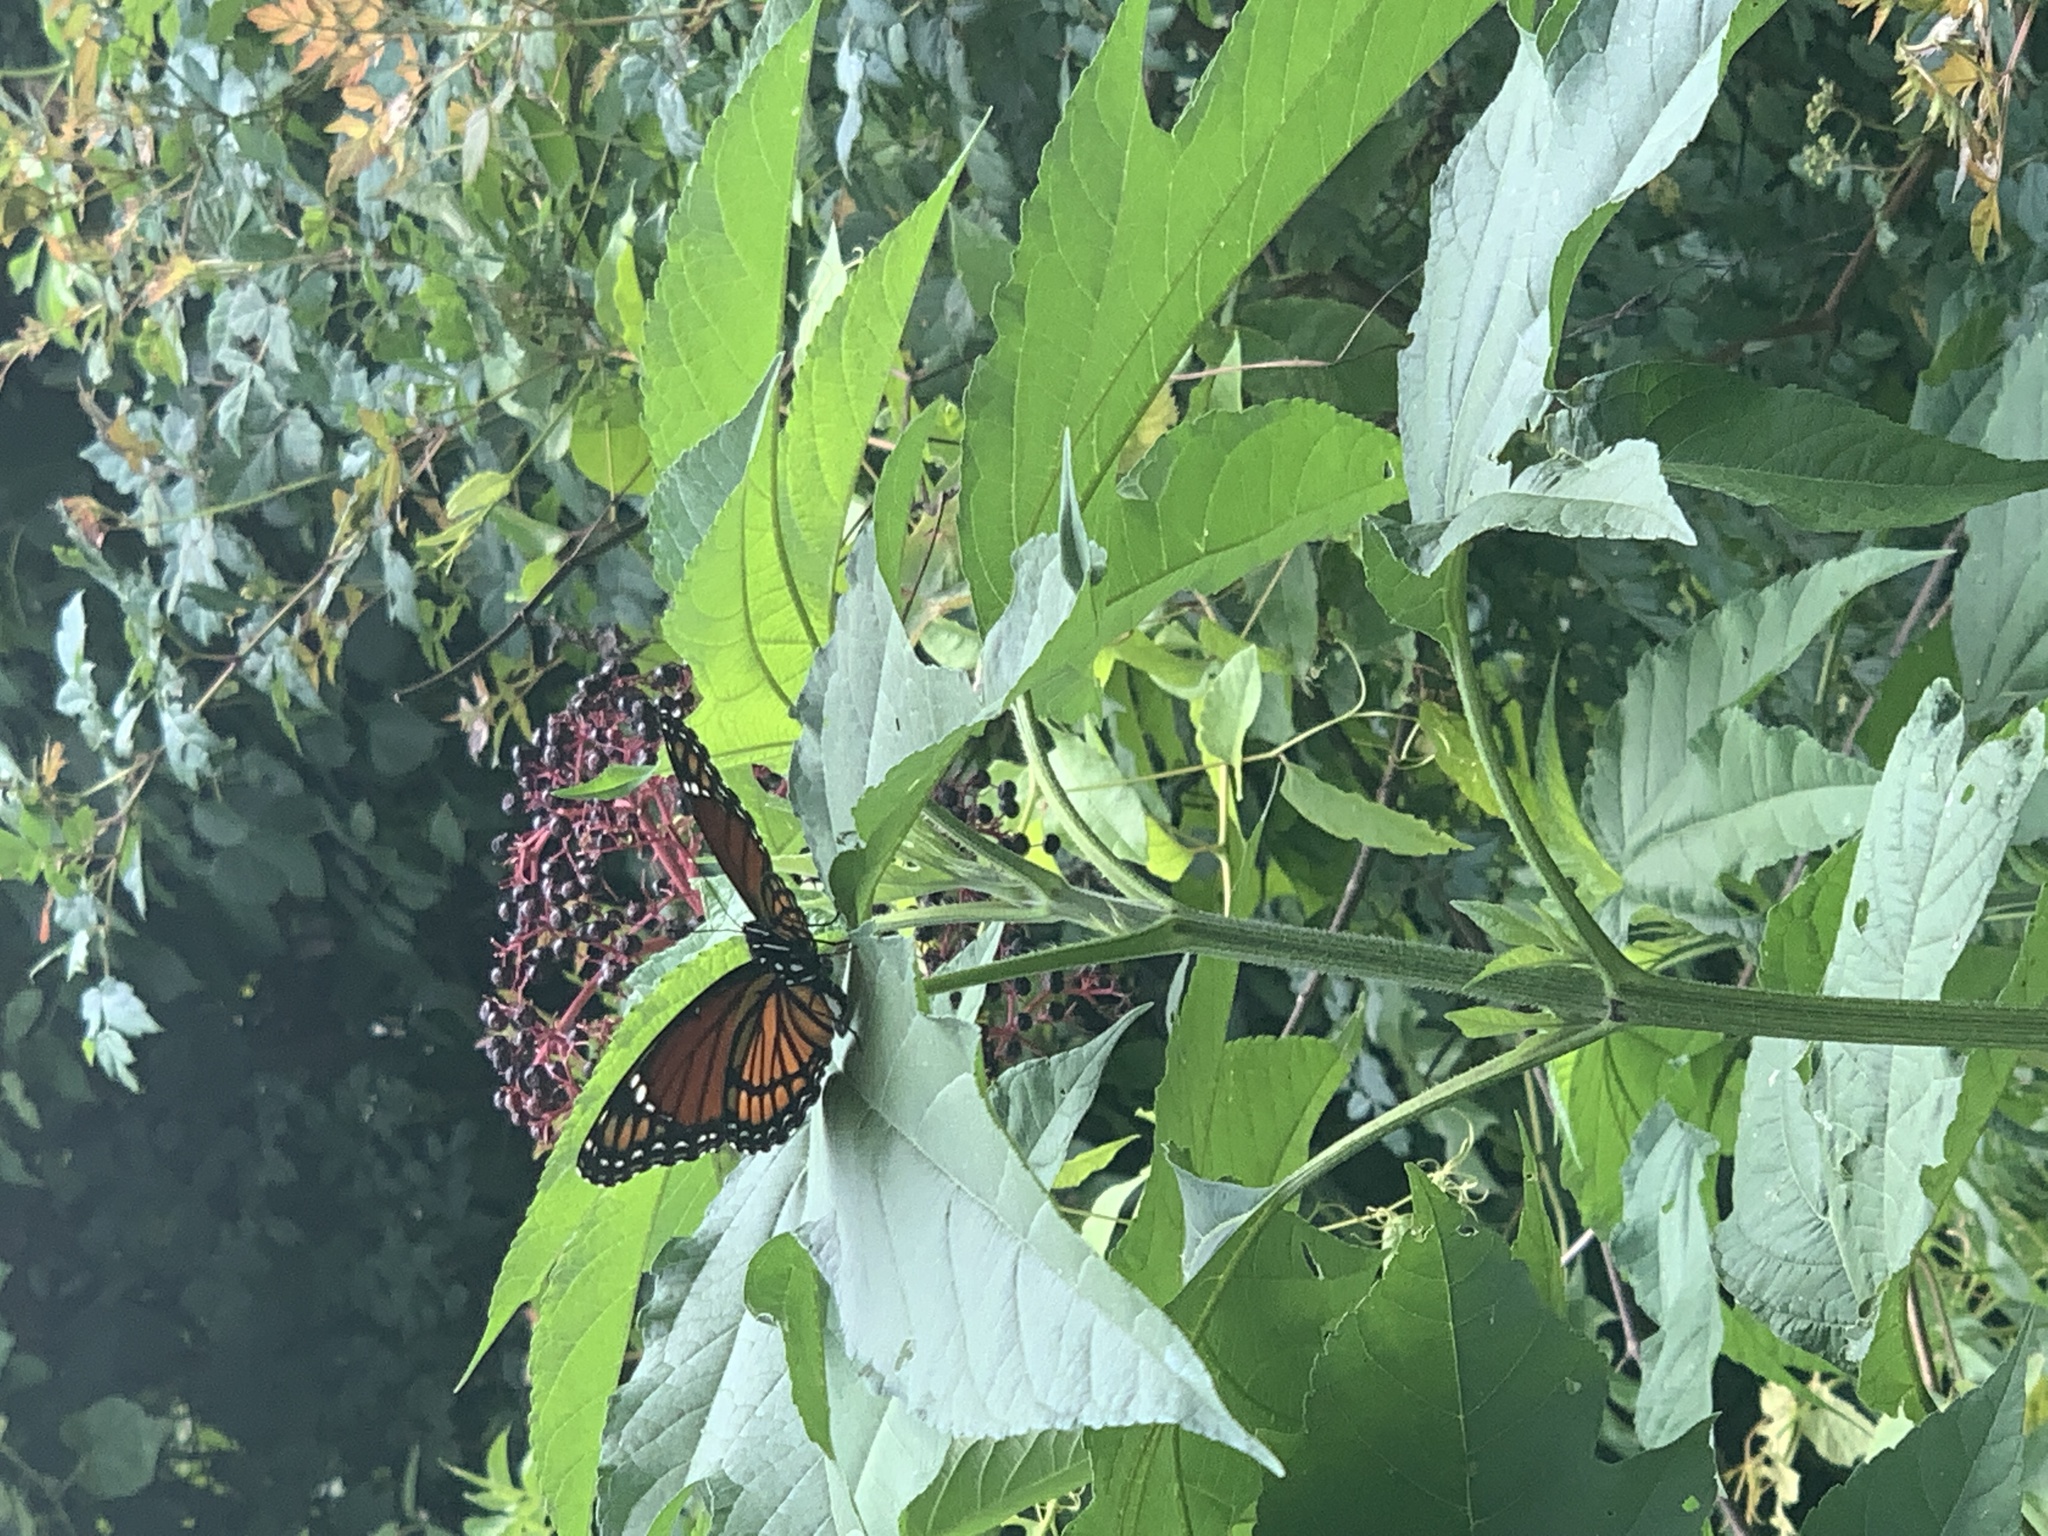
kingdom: Animalia
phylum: Arthropoda
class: Insecta
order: Lepidoptera
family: Nymphalidae
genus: Limenitis
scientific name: Limenitis archippus
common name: Viceroy
